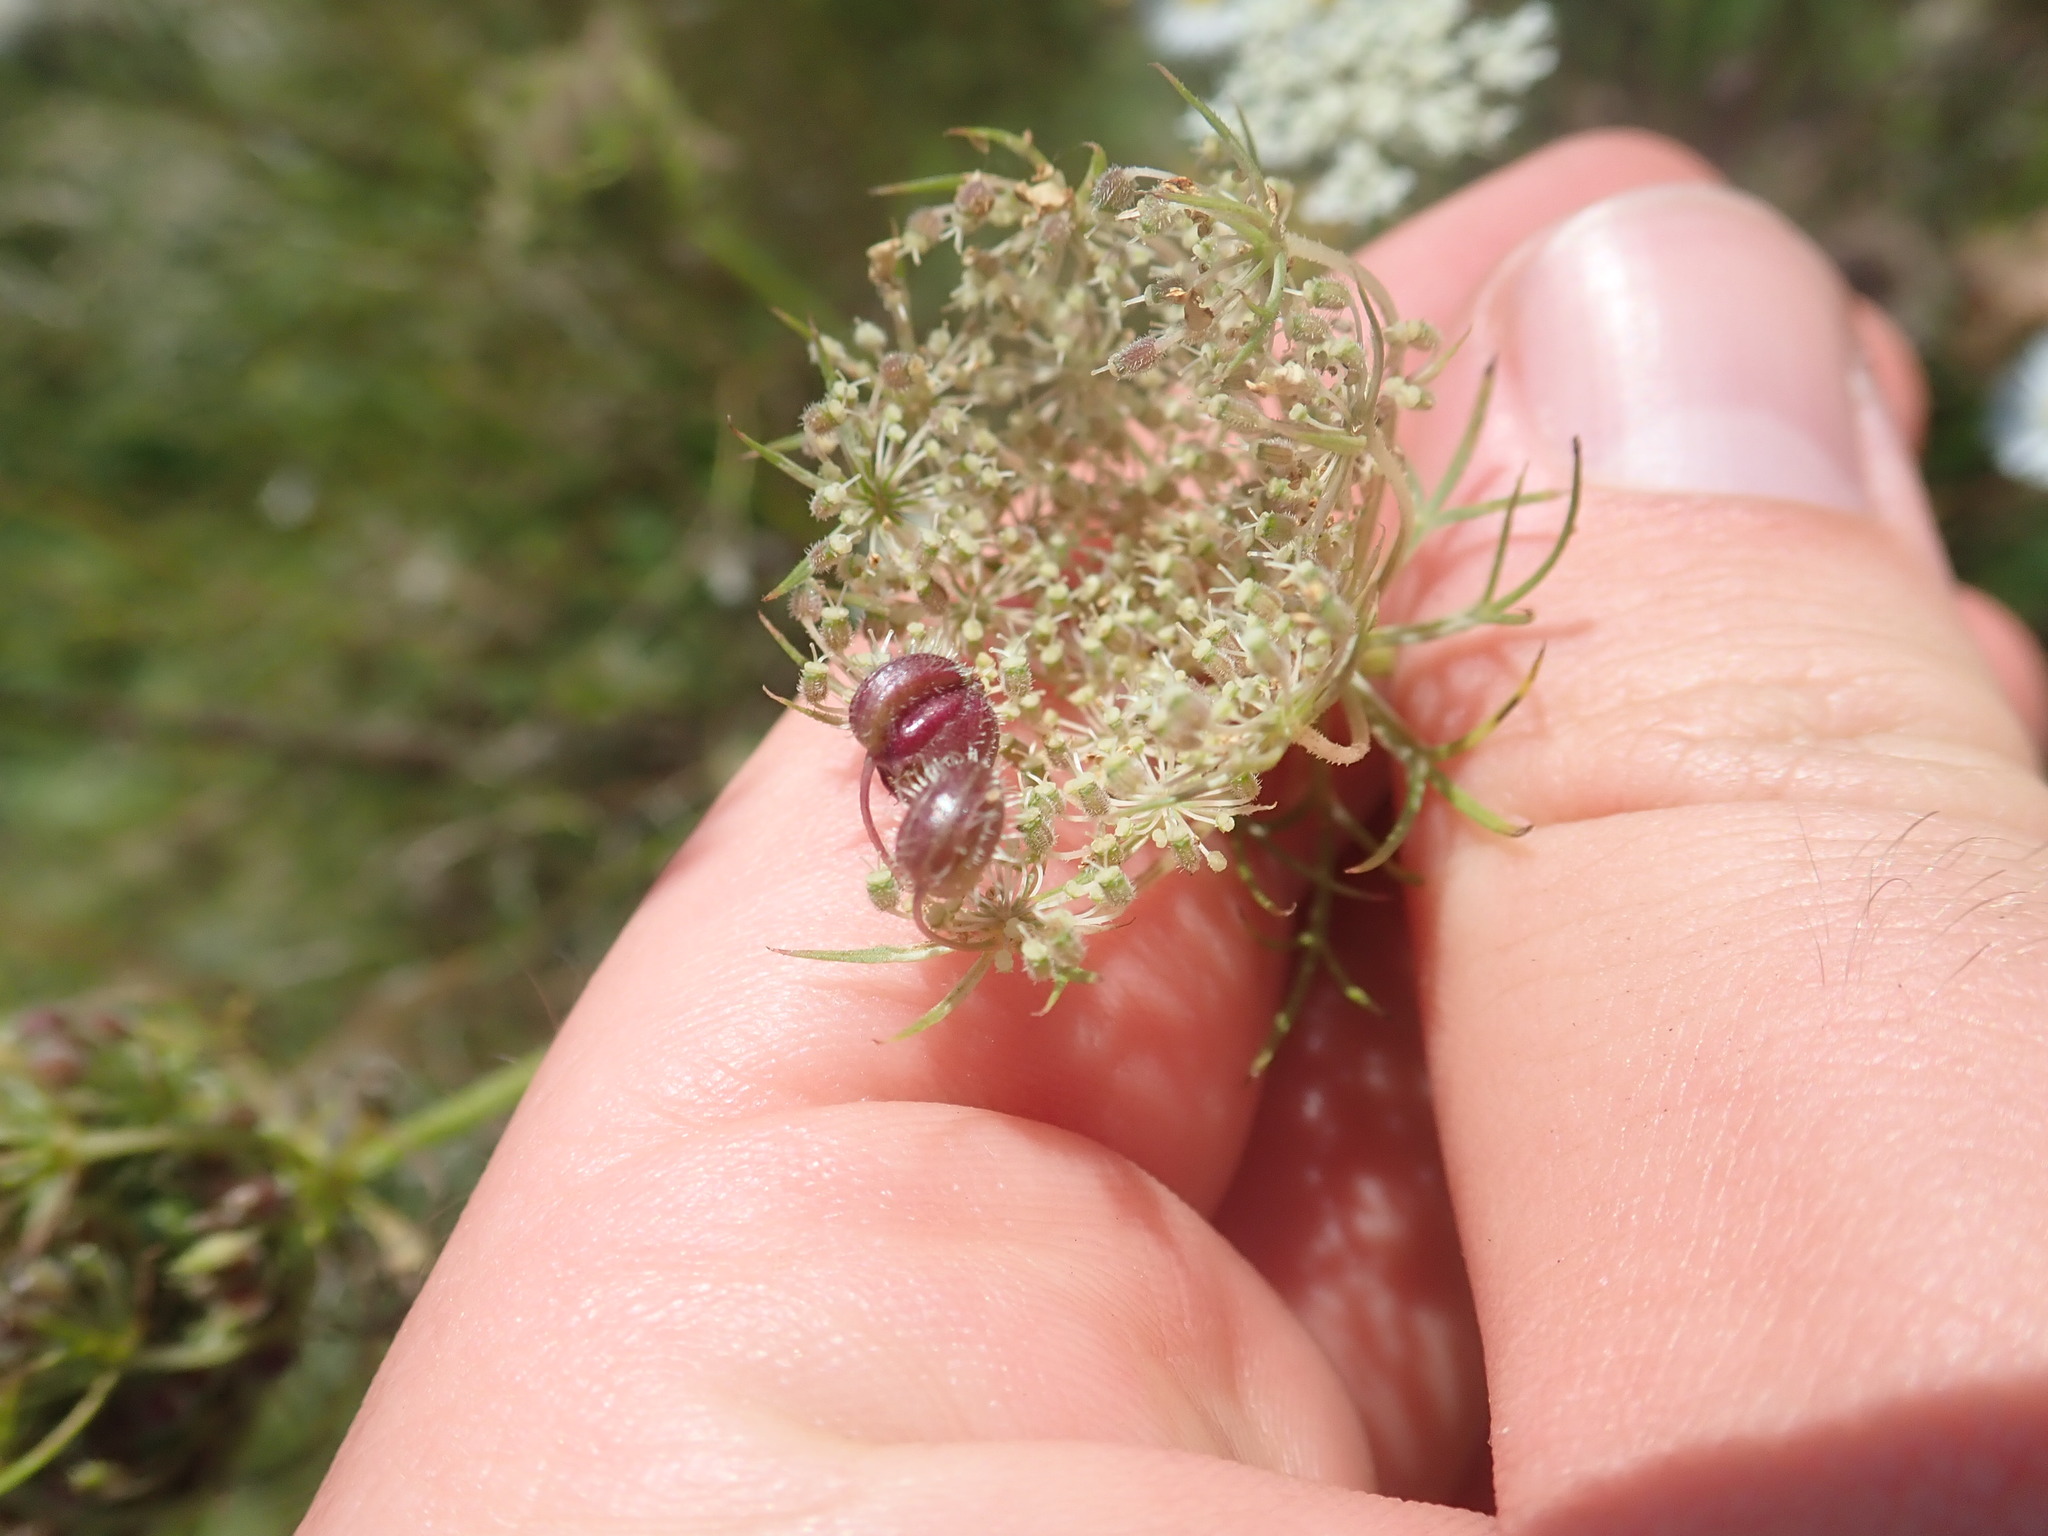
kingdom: Animalia
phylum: Arthropoda
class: Insecta
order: Diptera
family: Cecidomyiidae
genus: Kiefferia
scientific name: Kiefferia pericarpiicola
